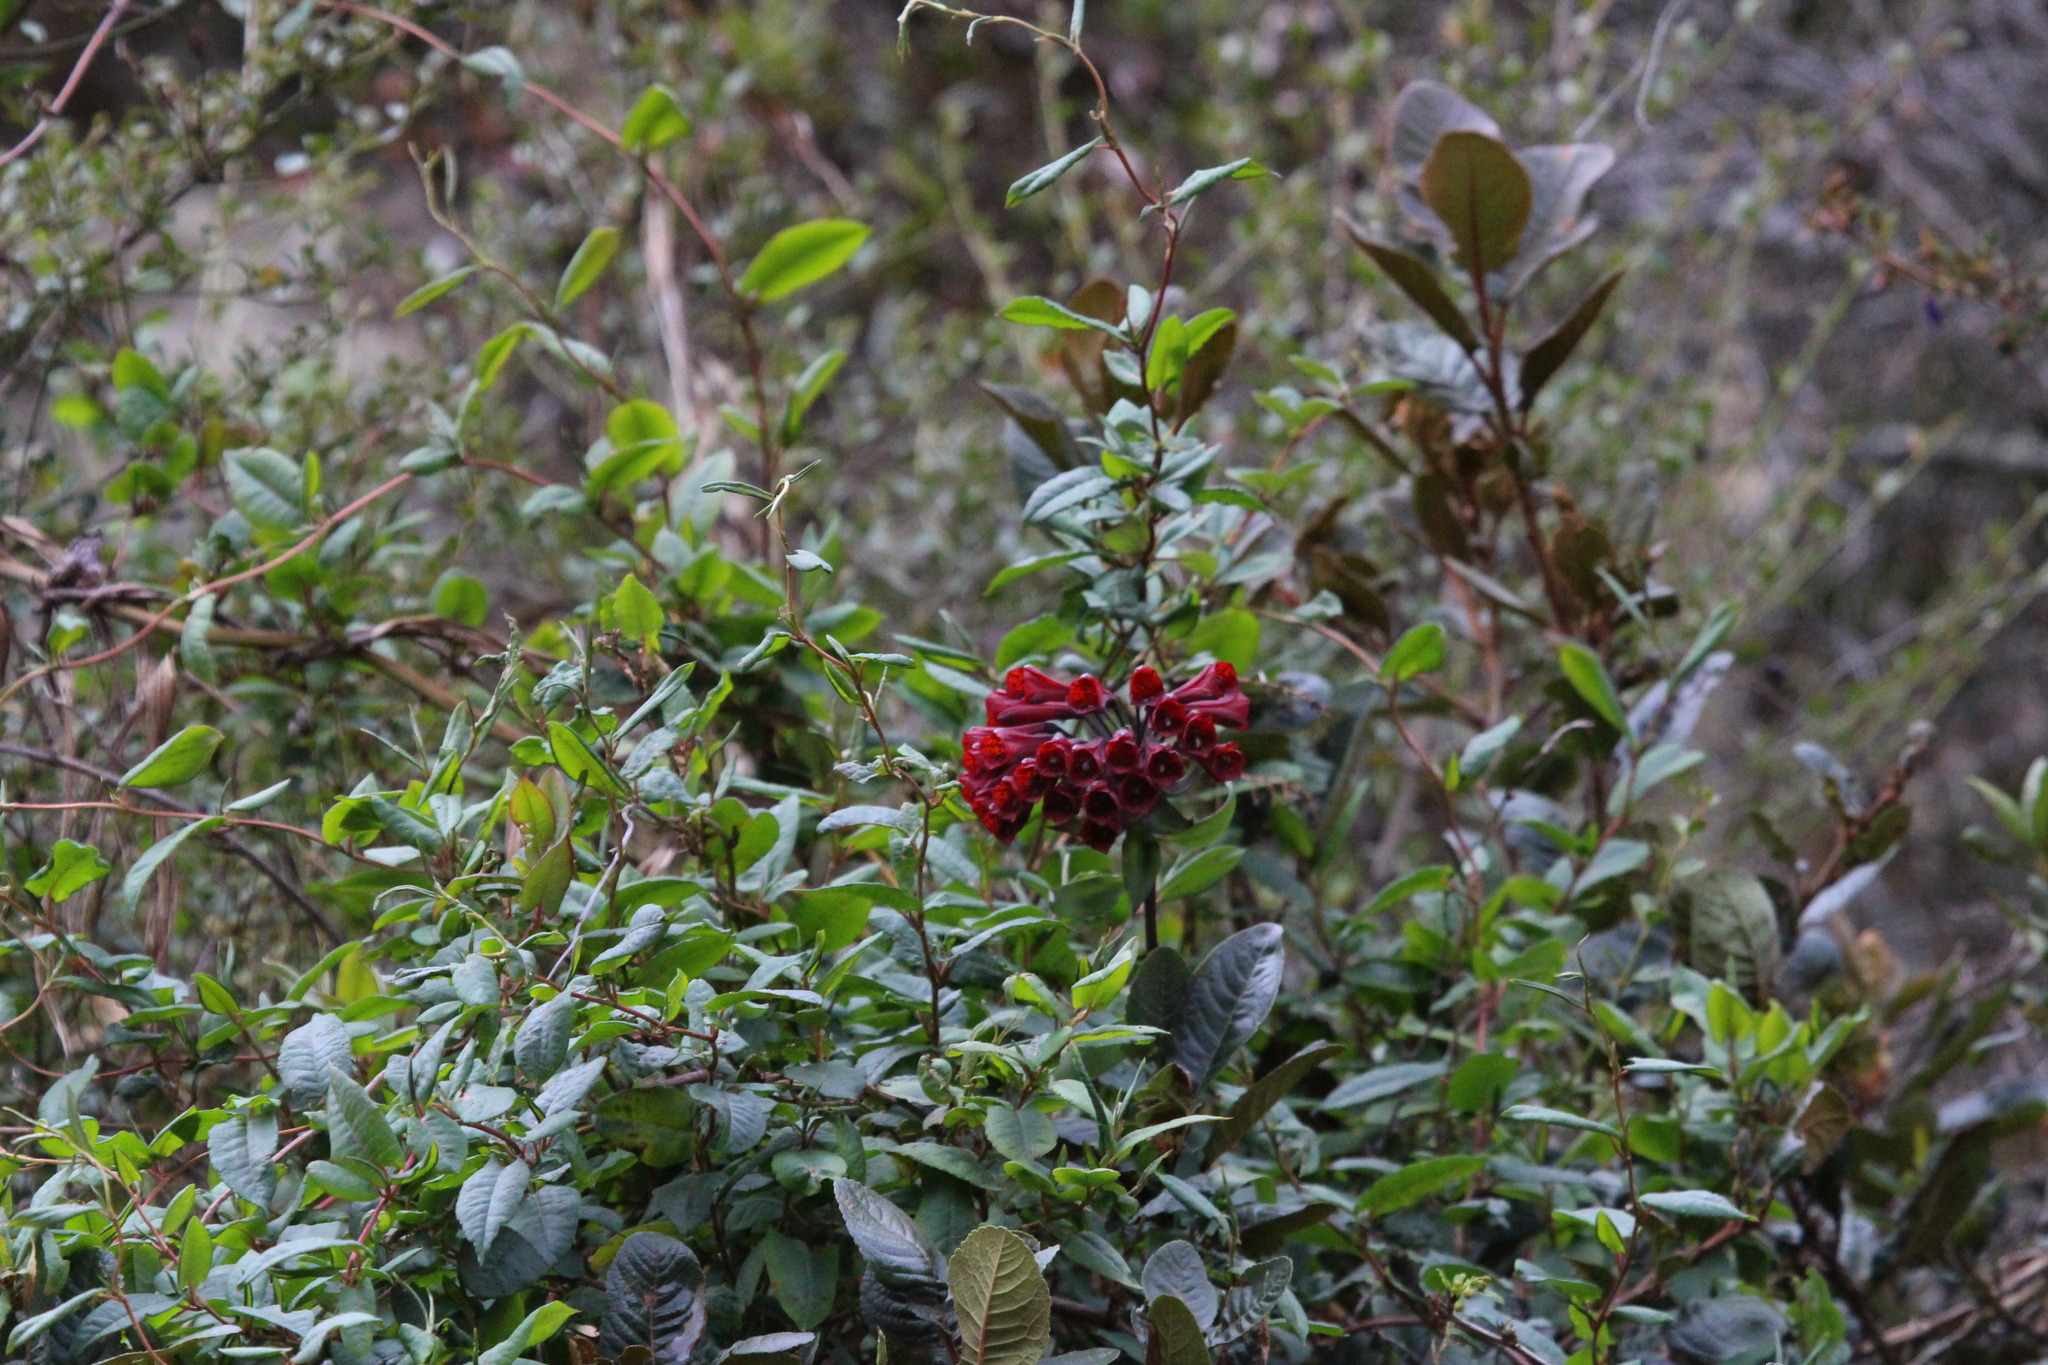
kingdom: Plantae
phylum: Tracheophyta
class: Liliopsida
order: Liliales
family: Alstroemeriaceae
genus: Bomarea
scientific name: Bomarea formosissima
